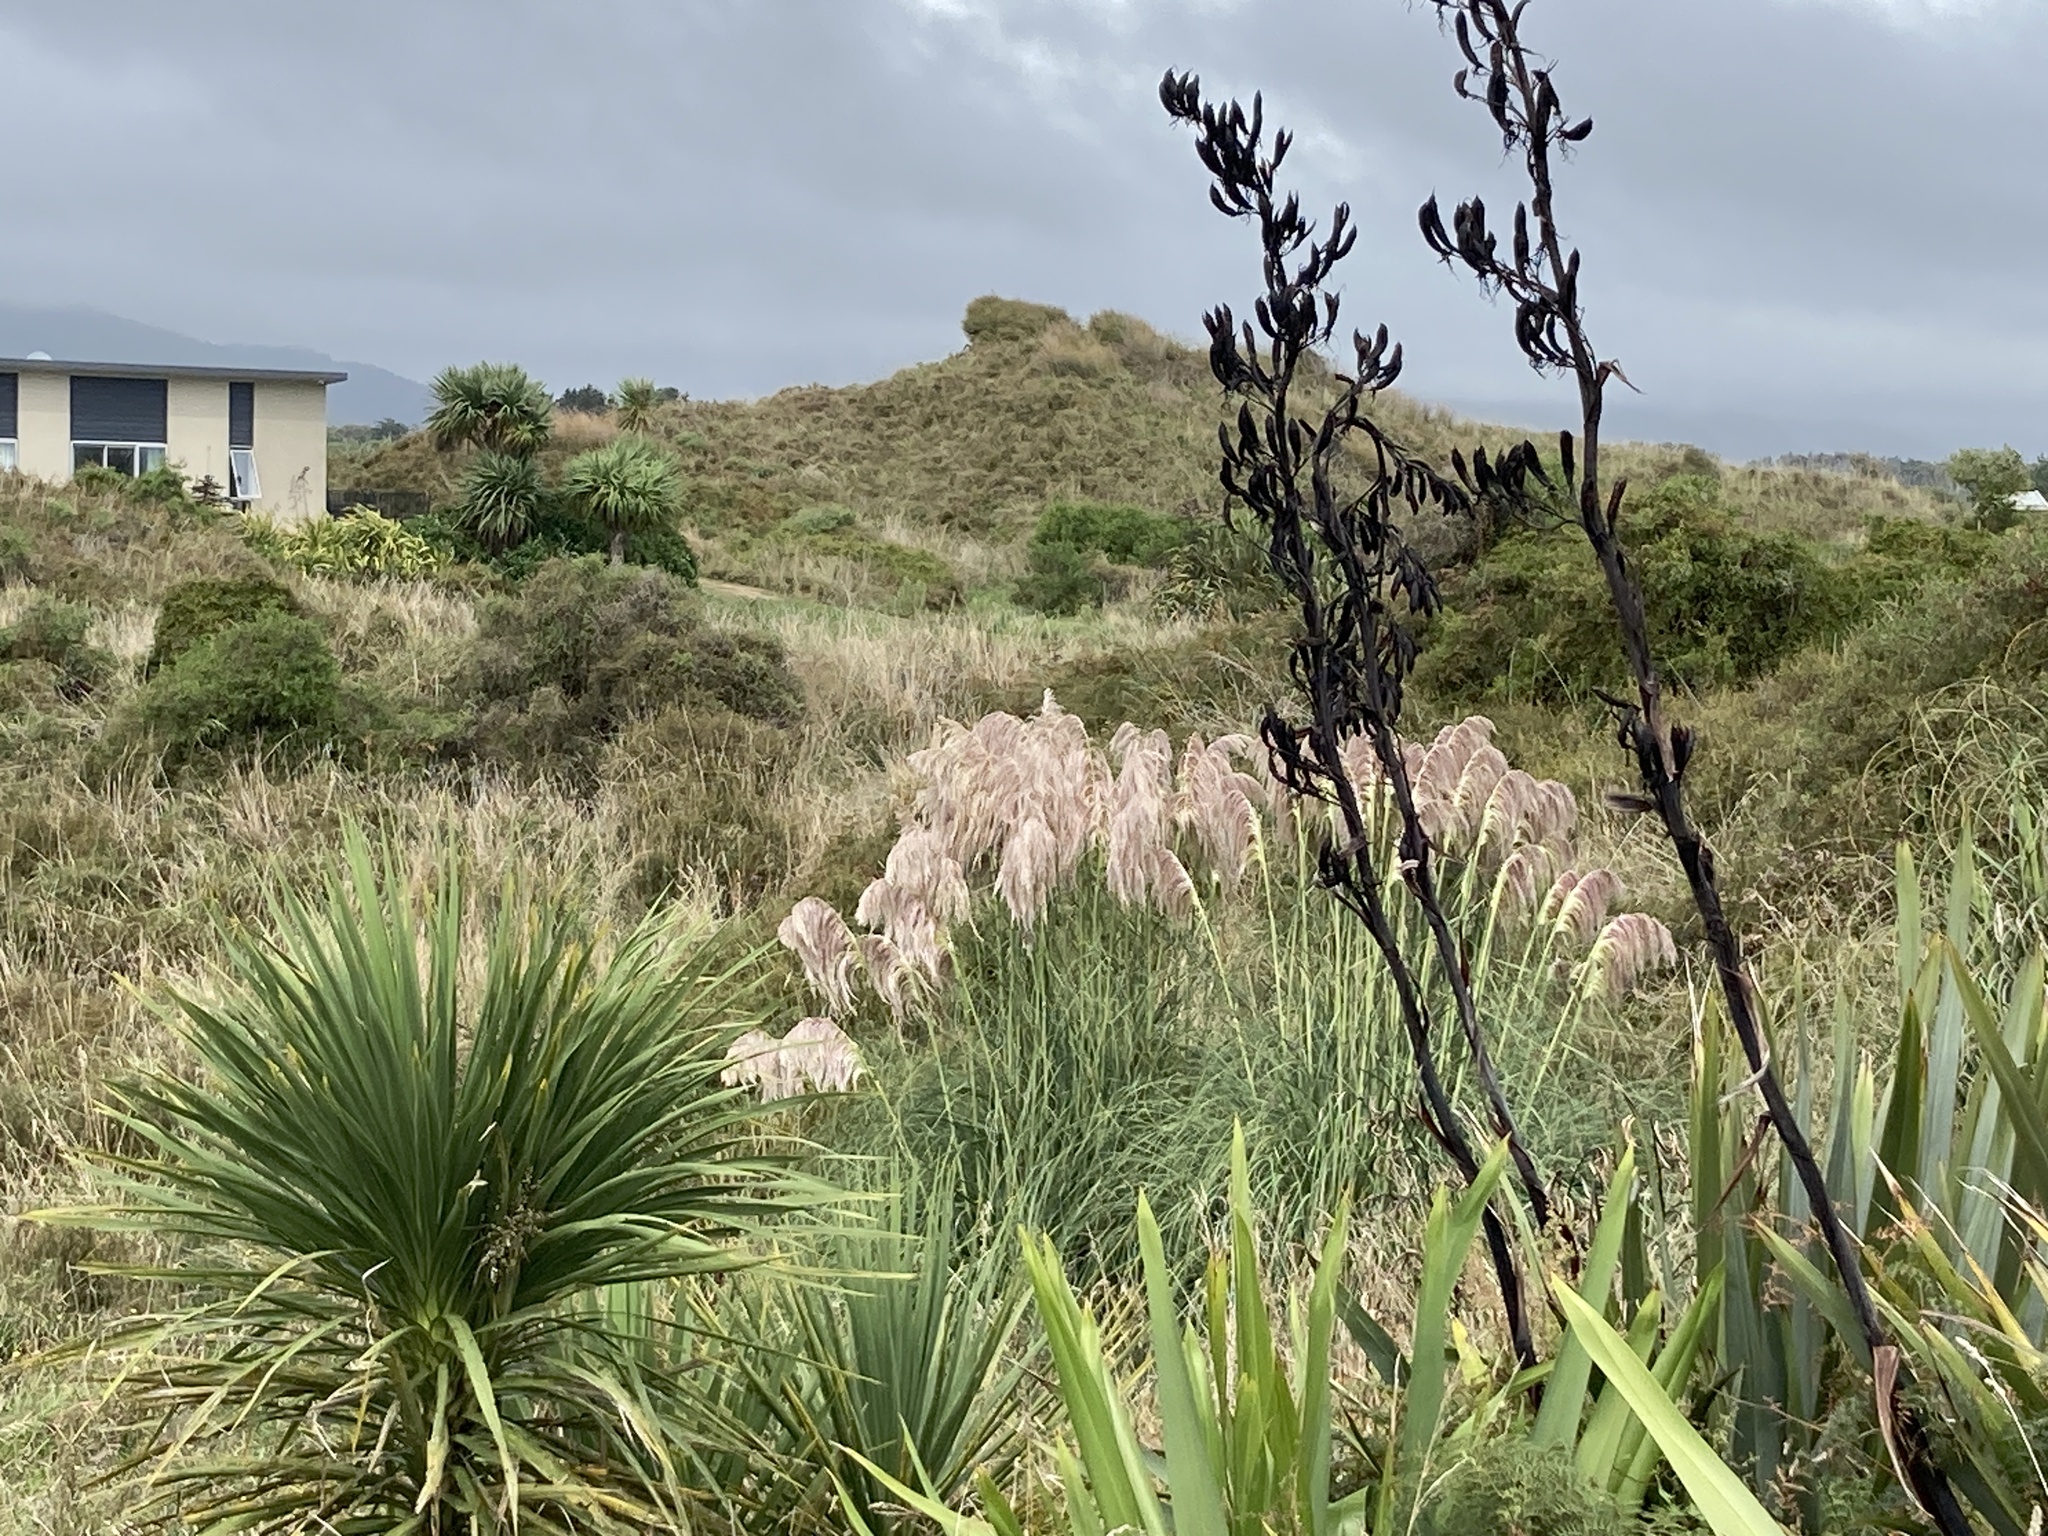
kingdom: Plantae
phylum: Tracheophyta
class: Liliopsida
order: Poales
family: Poaceae
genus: Cortaderia
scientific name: Cortaderia jubata
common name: Purple pampas grass
